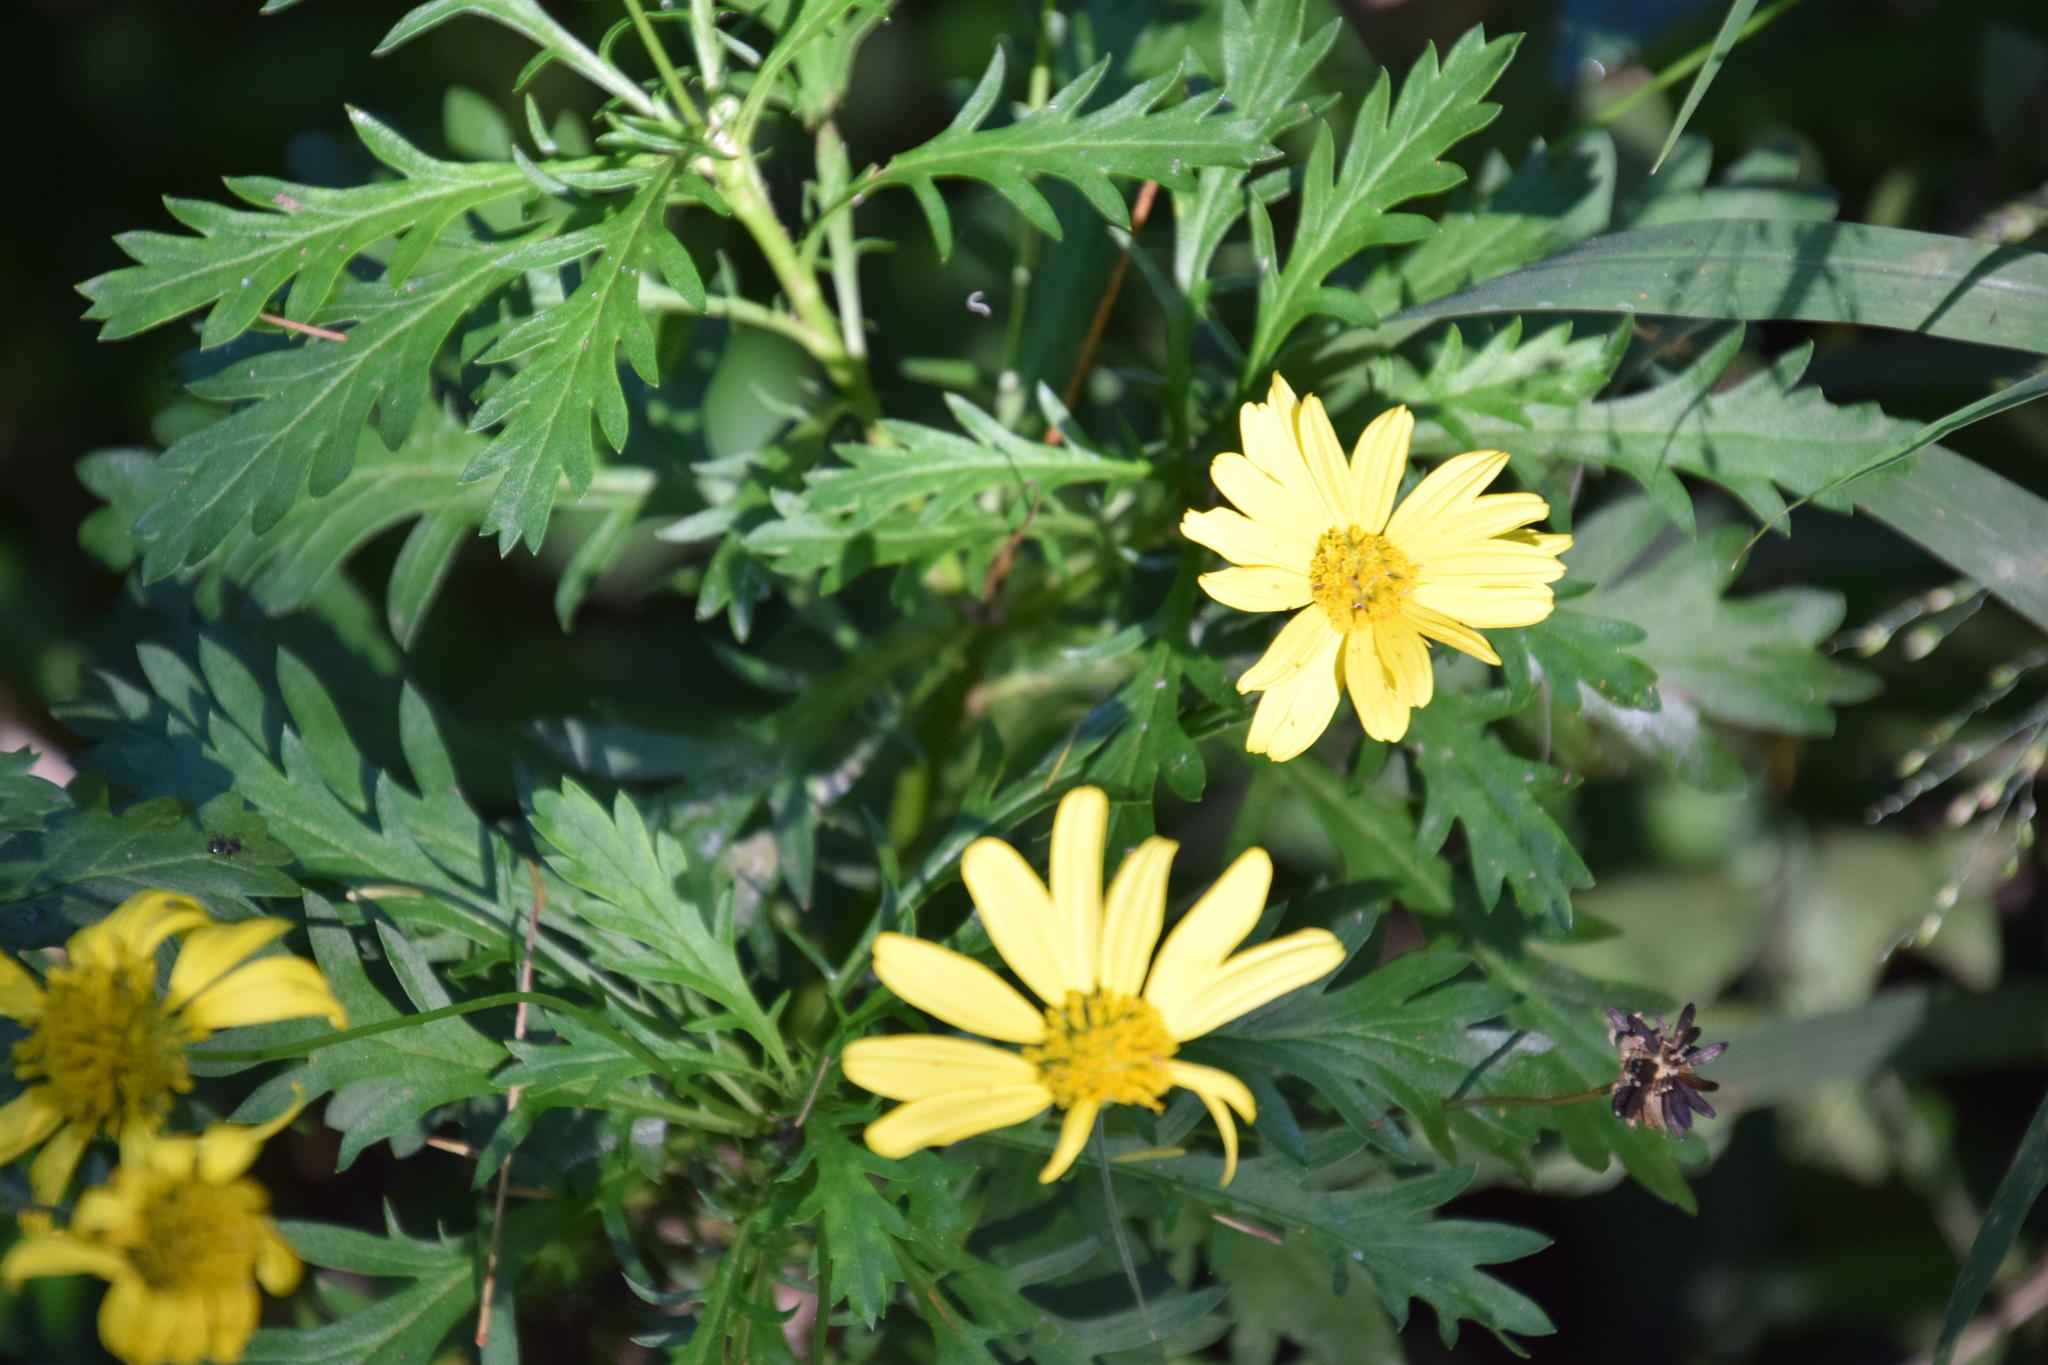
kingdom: Plantae
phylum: Tracheophyta
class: Magnoliopsida
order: Asterales
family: Asteraceae
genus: Euryops
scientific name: Euryops chrysanthemoides
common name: Bull's eye
